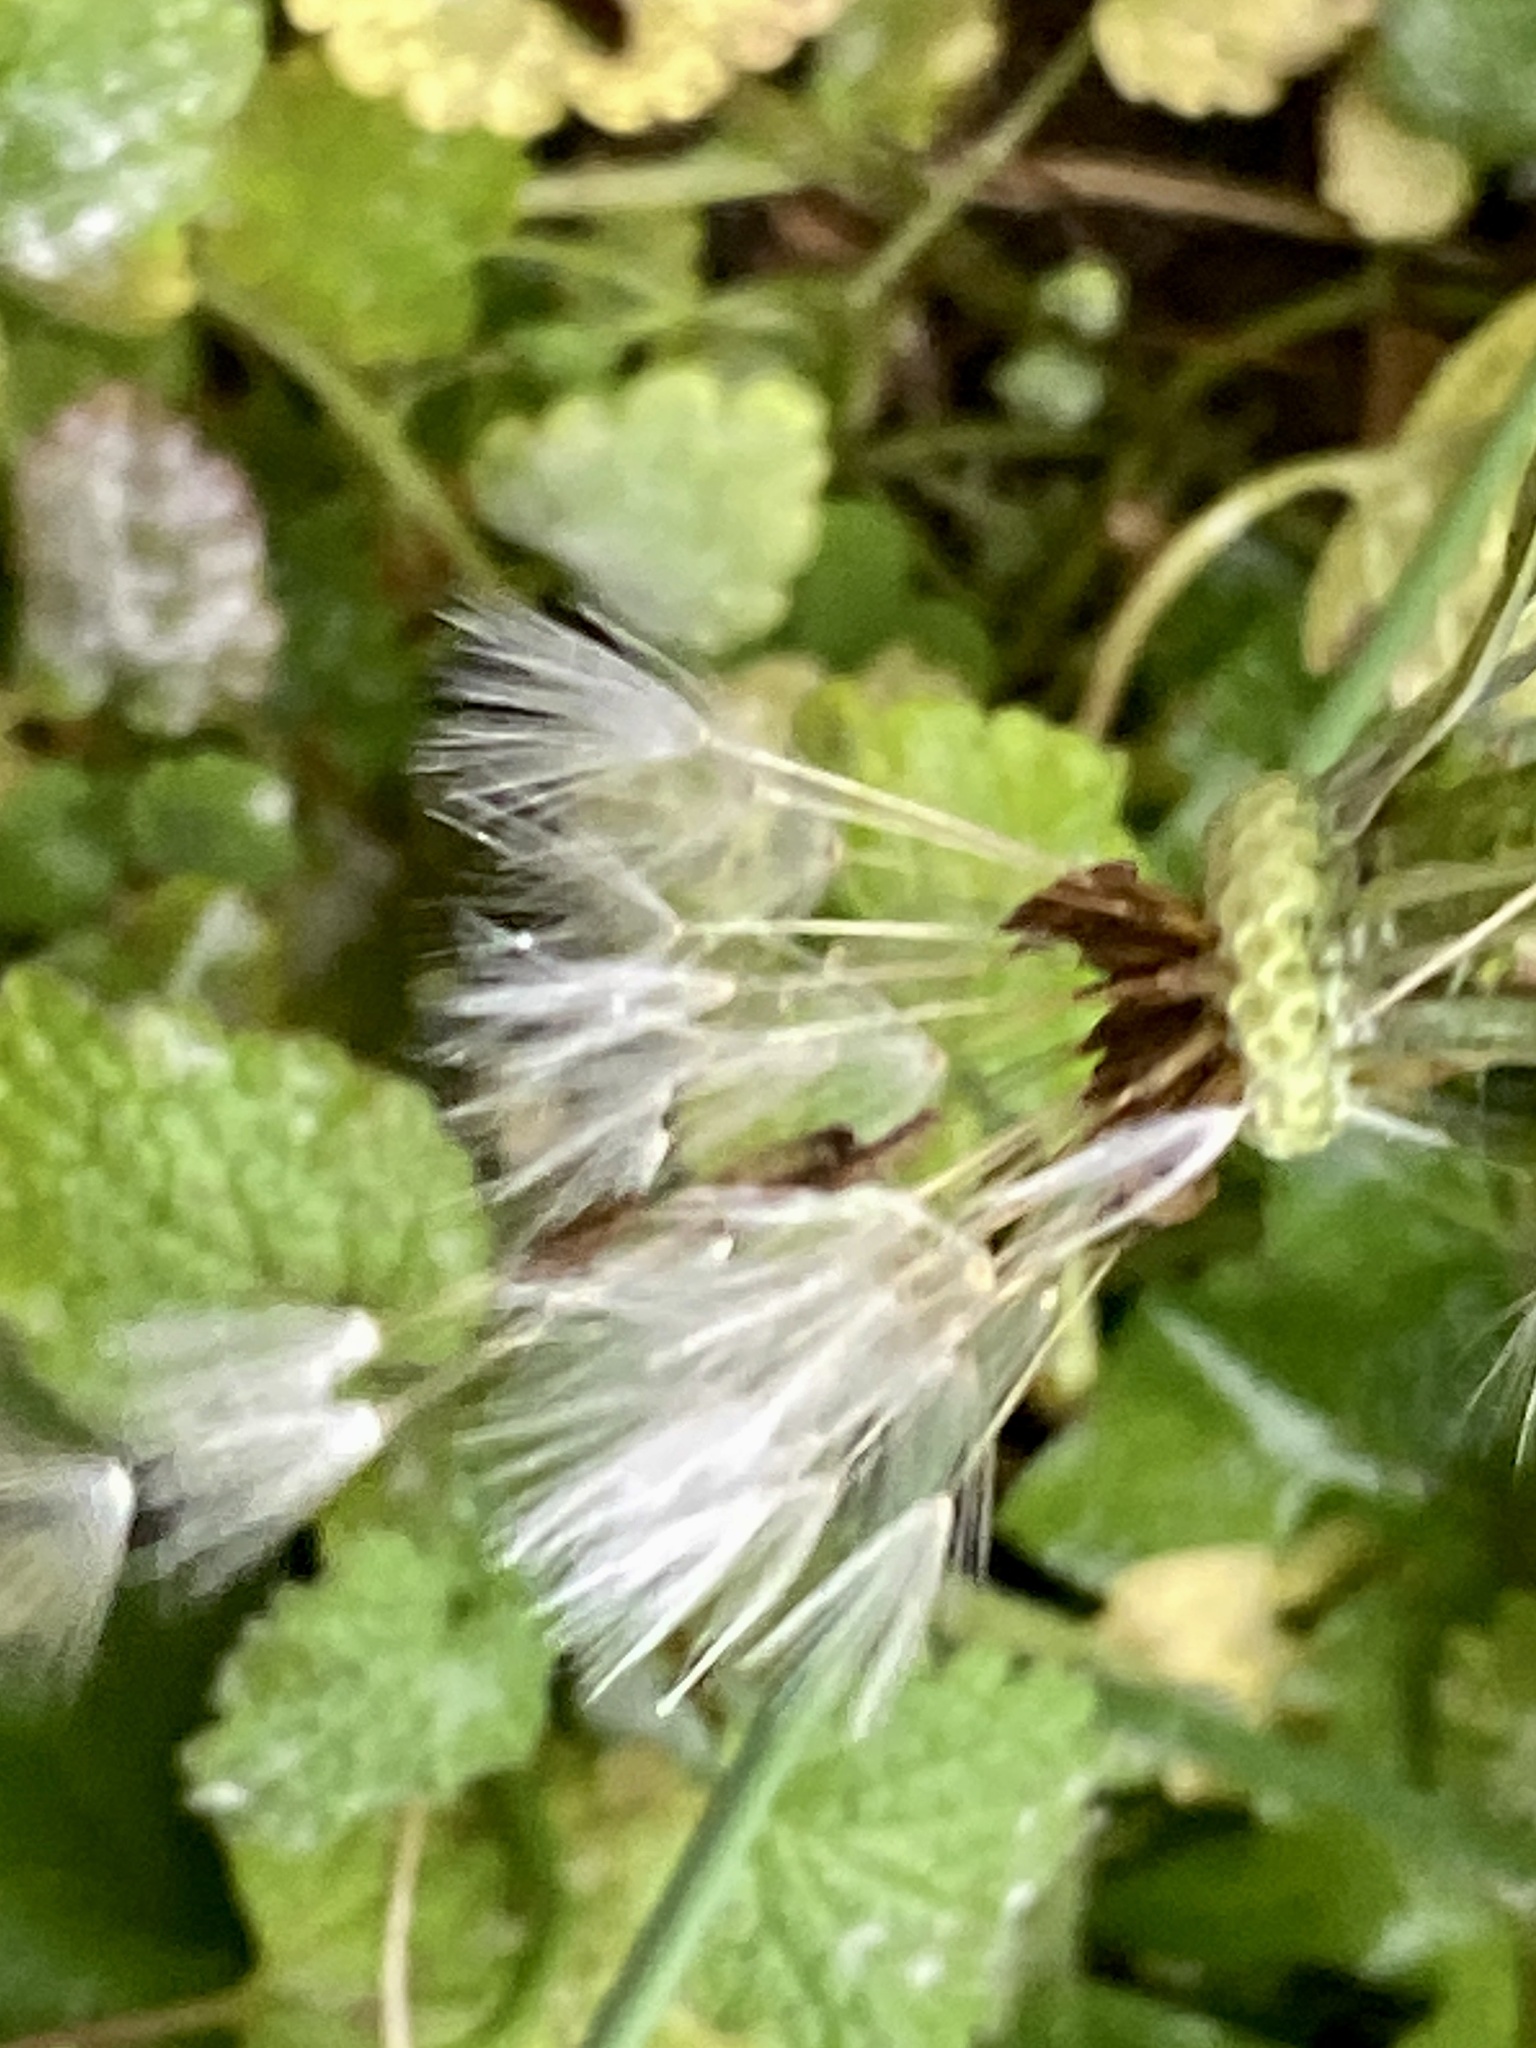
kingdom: Plantae
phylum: Tracheophyta
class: Magnoliopsida
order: Asterales
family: Asteraceae
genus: Taraxacum
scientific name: Taraxacum officinale
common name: Common dandelion
